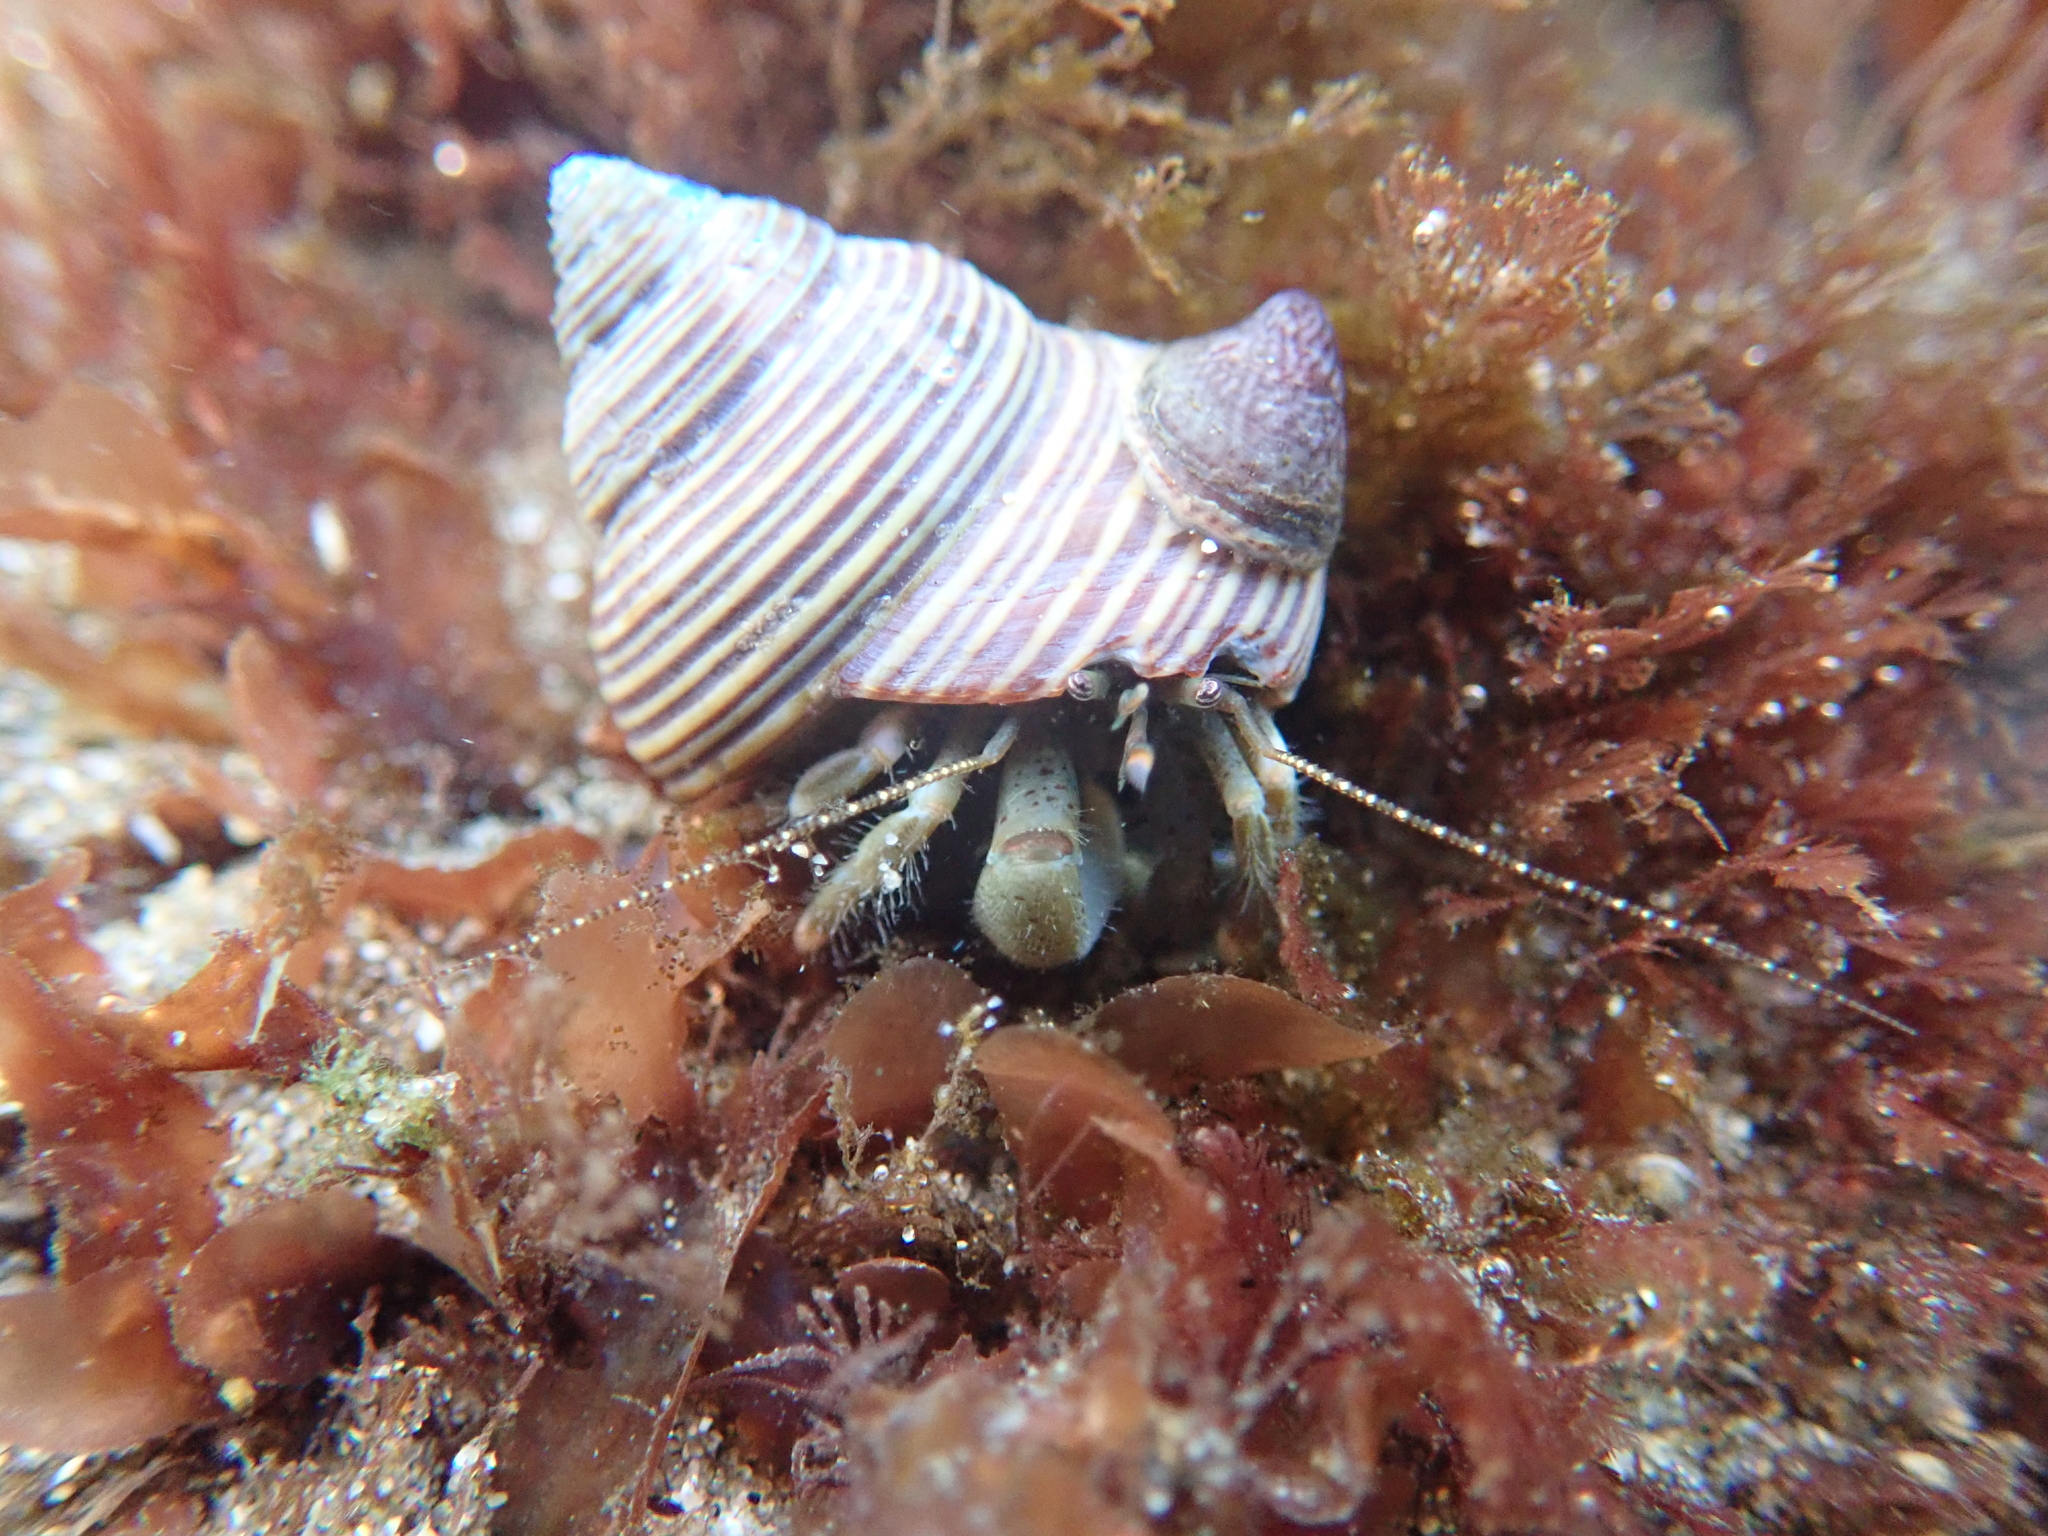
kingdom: Animalia
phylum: Arthropoda
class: Malacostraca
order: Decapoda
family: Paguridae
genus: Pagurus
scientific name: Pagurus hirsutiusculus
